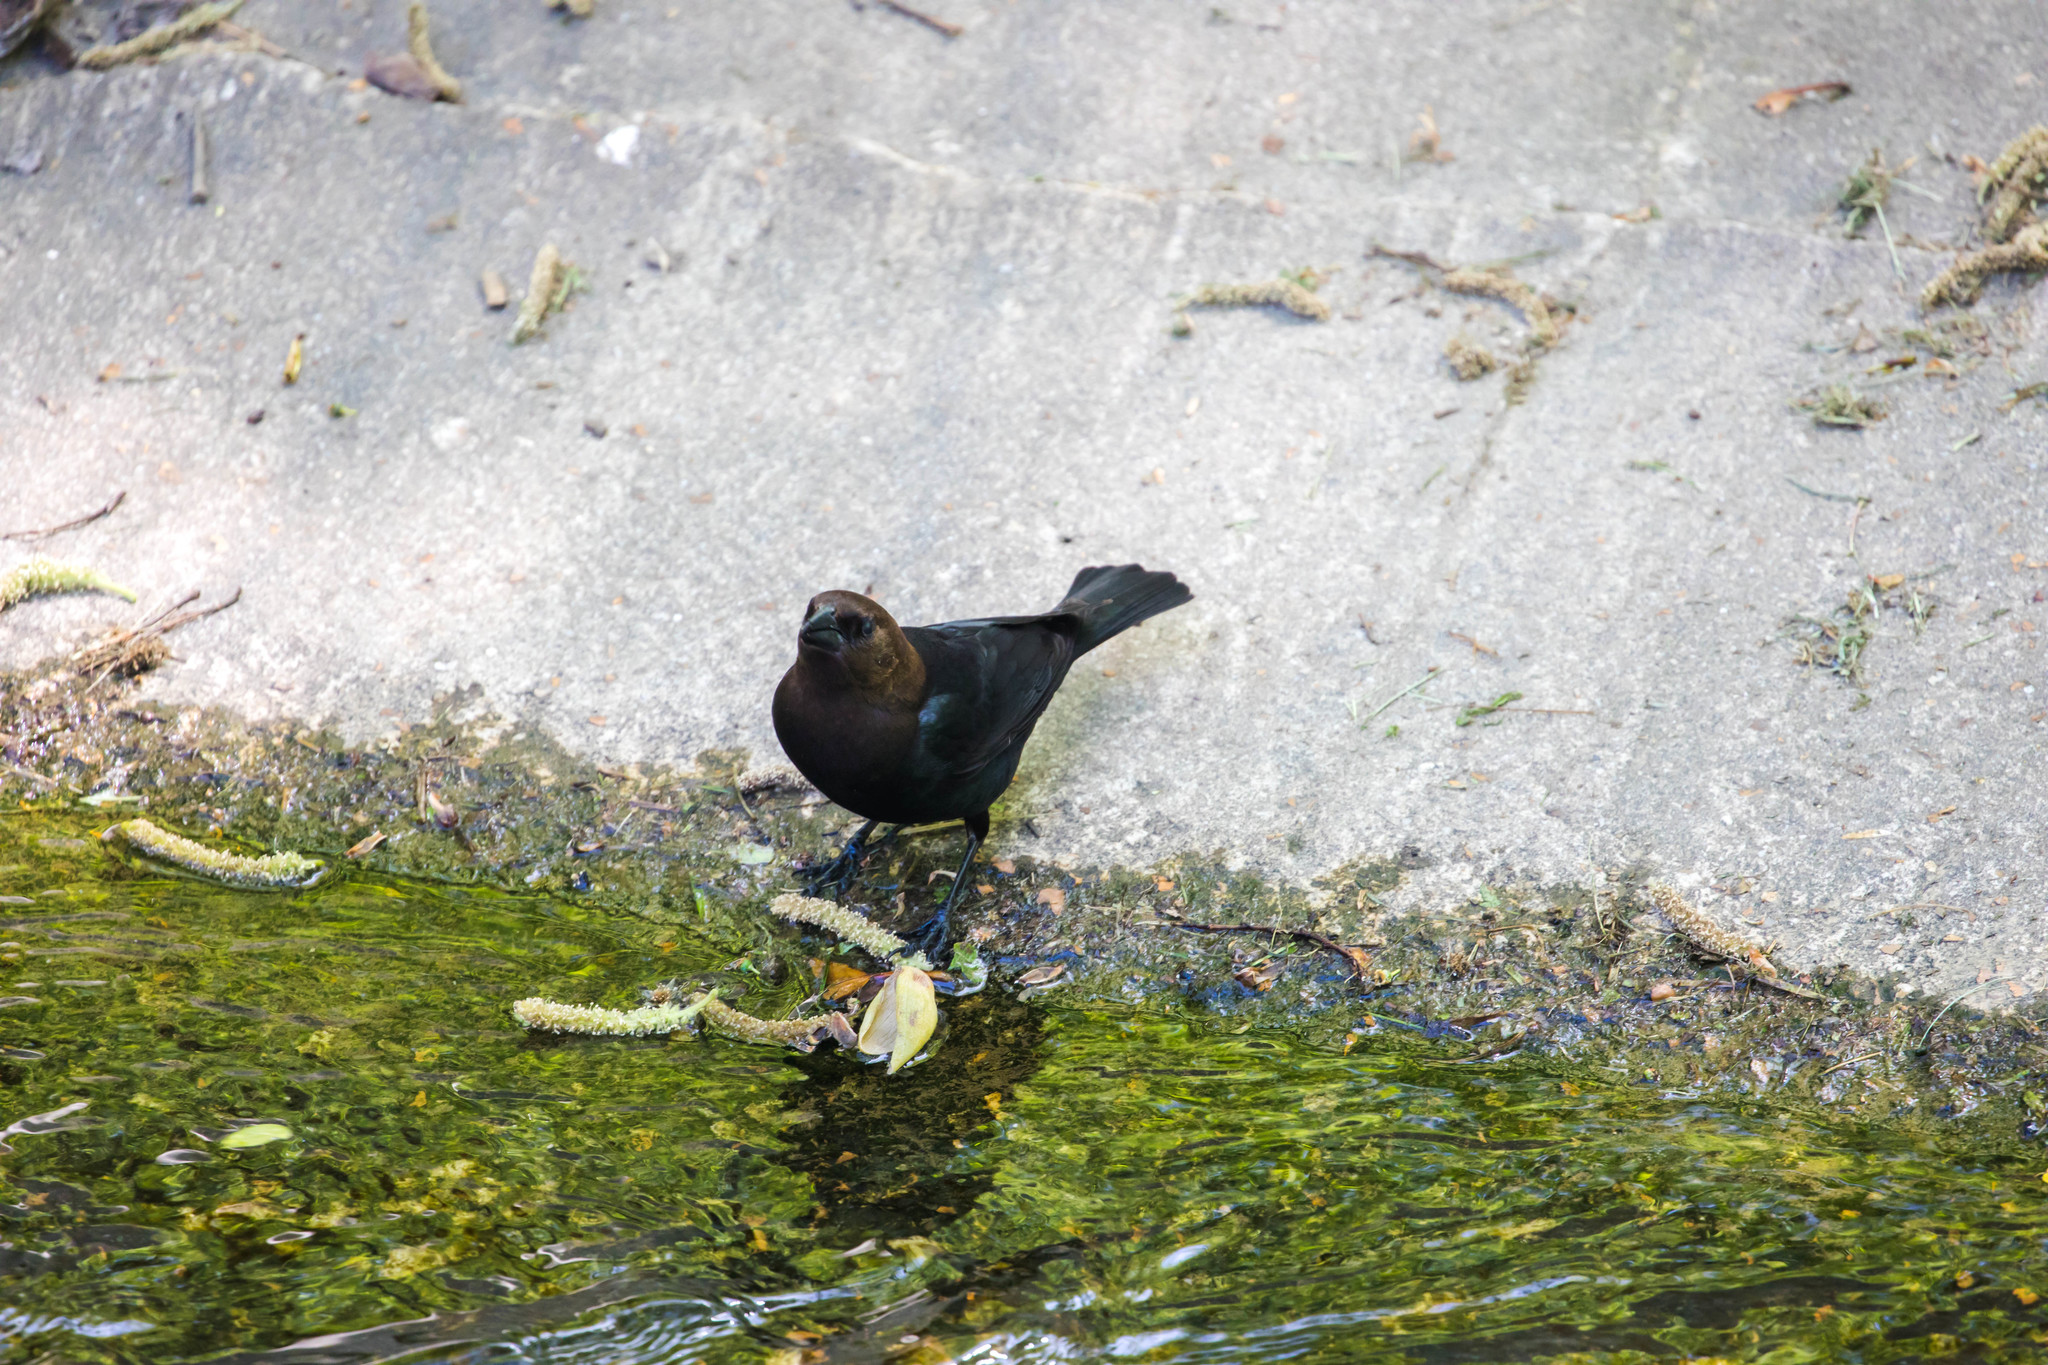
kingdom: Animalia
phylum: Chordata
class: Aves
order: Passeriformes
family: Icteridae
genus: Molothrus
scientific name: Molothrus ater
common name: Brown-headed cowbird
